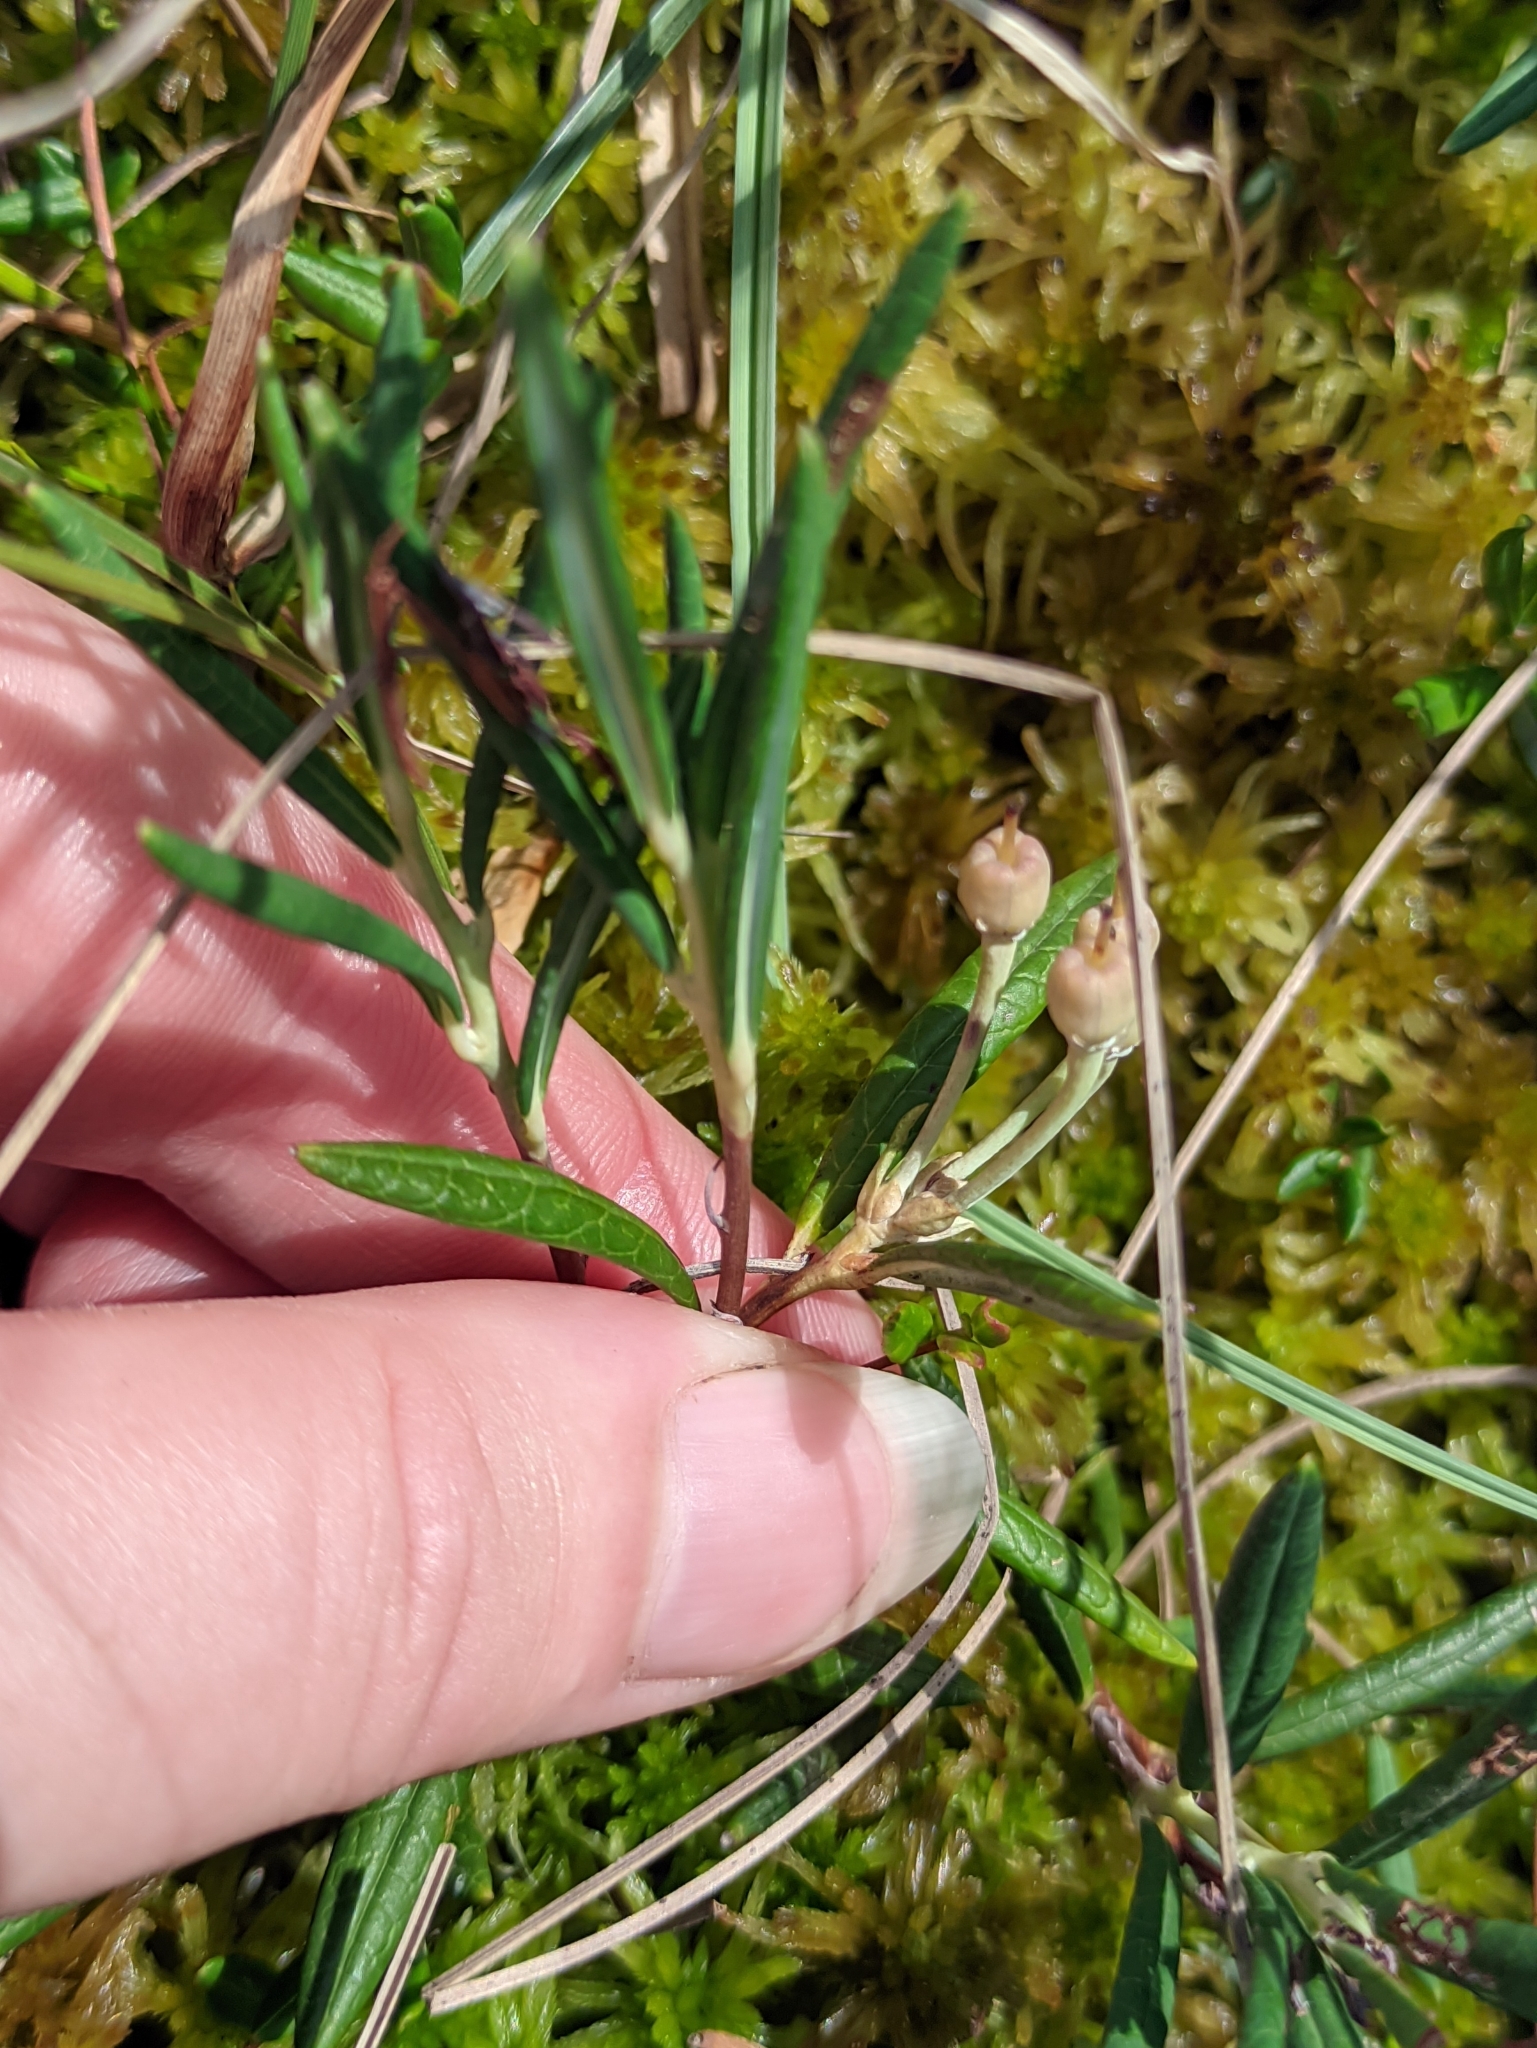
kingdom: Plantae
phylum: Tracheophyta
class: Magnoliopsida
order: Ericales
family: Ericaceae
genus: Andromeda
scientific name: Andromeda polifolia
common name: Bog-rosemary
